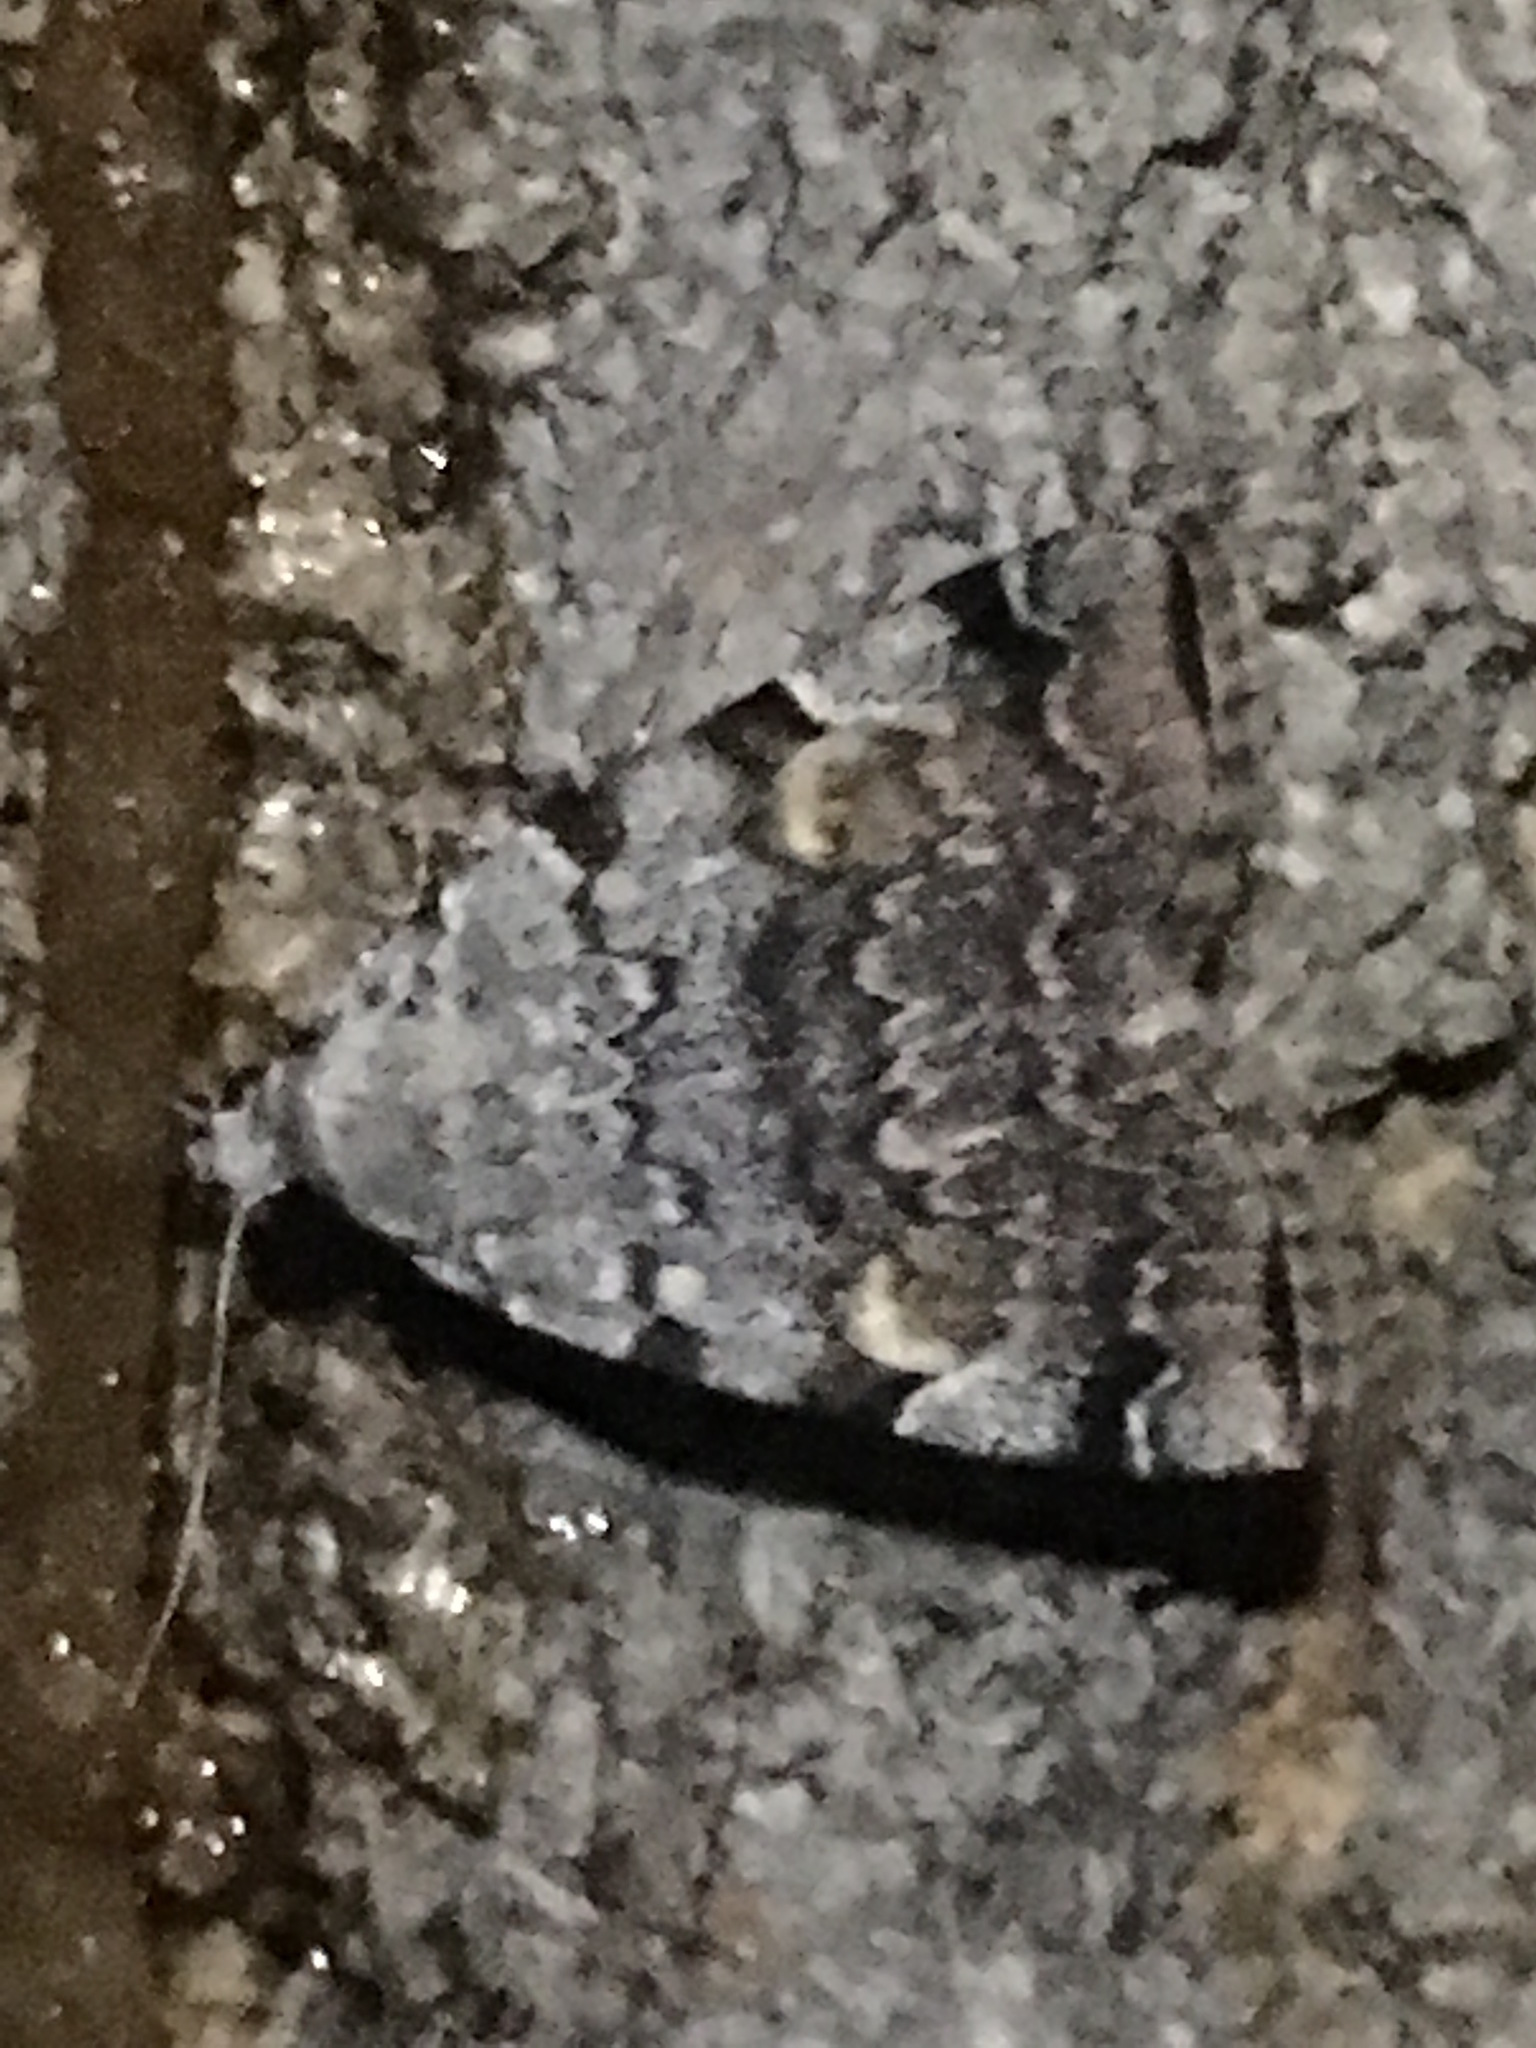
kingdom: Animalia
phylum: Arthropoda
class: Insecta
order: Lepidoptera
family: Erebidae
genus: Idia
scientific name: Idia americalis
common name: American idia moth
